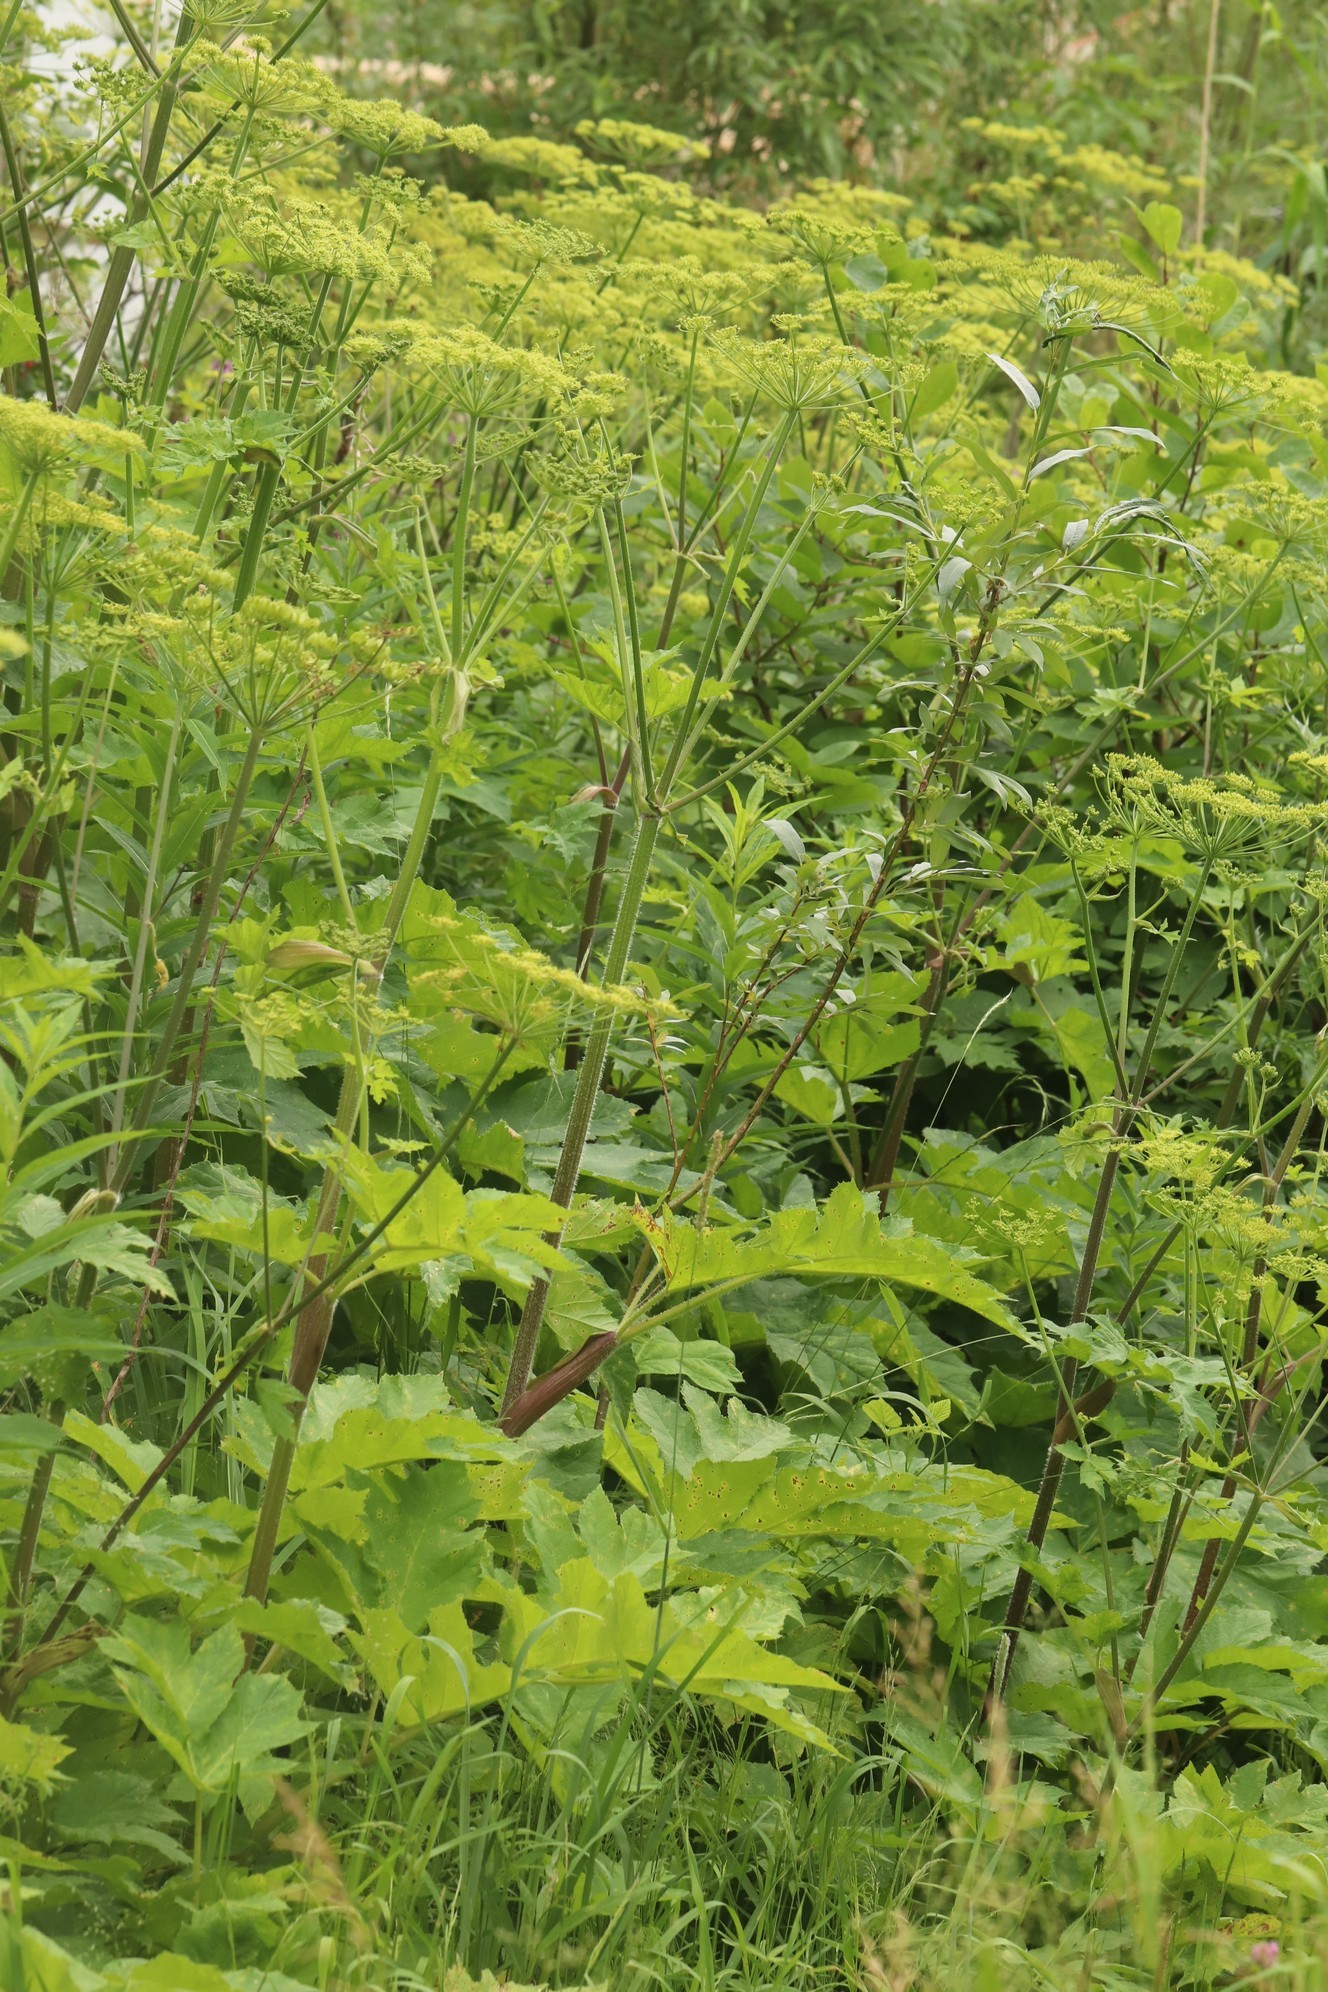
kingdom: Plantae
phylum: Tracheophyta
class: Magnoliopsida
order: Apiales
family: Apiaceae
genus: Heracleum
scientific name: Heracleum sphondylium
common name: Hogweed
